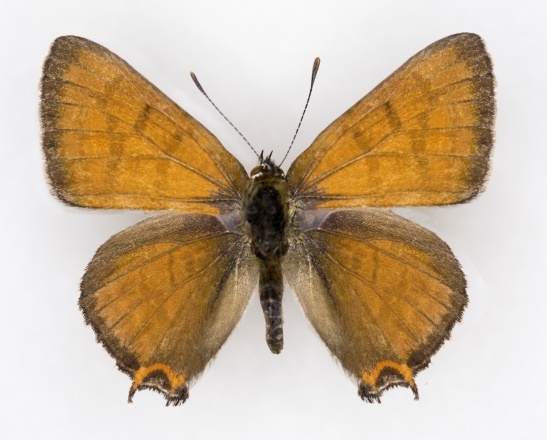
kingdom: Animalia
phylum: Arthropoda
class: Insecta
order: Lepidoptera
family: Lycaenidae
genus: Tharsalea
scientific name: Tharsalea arota
